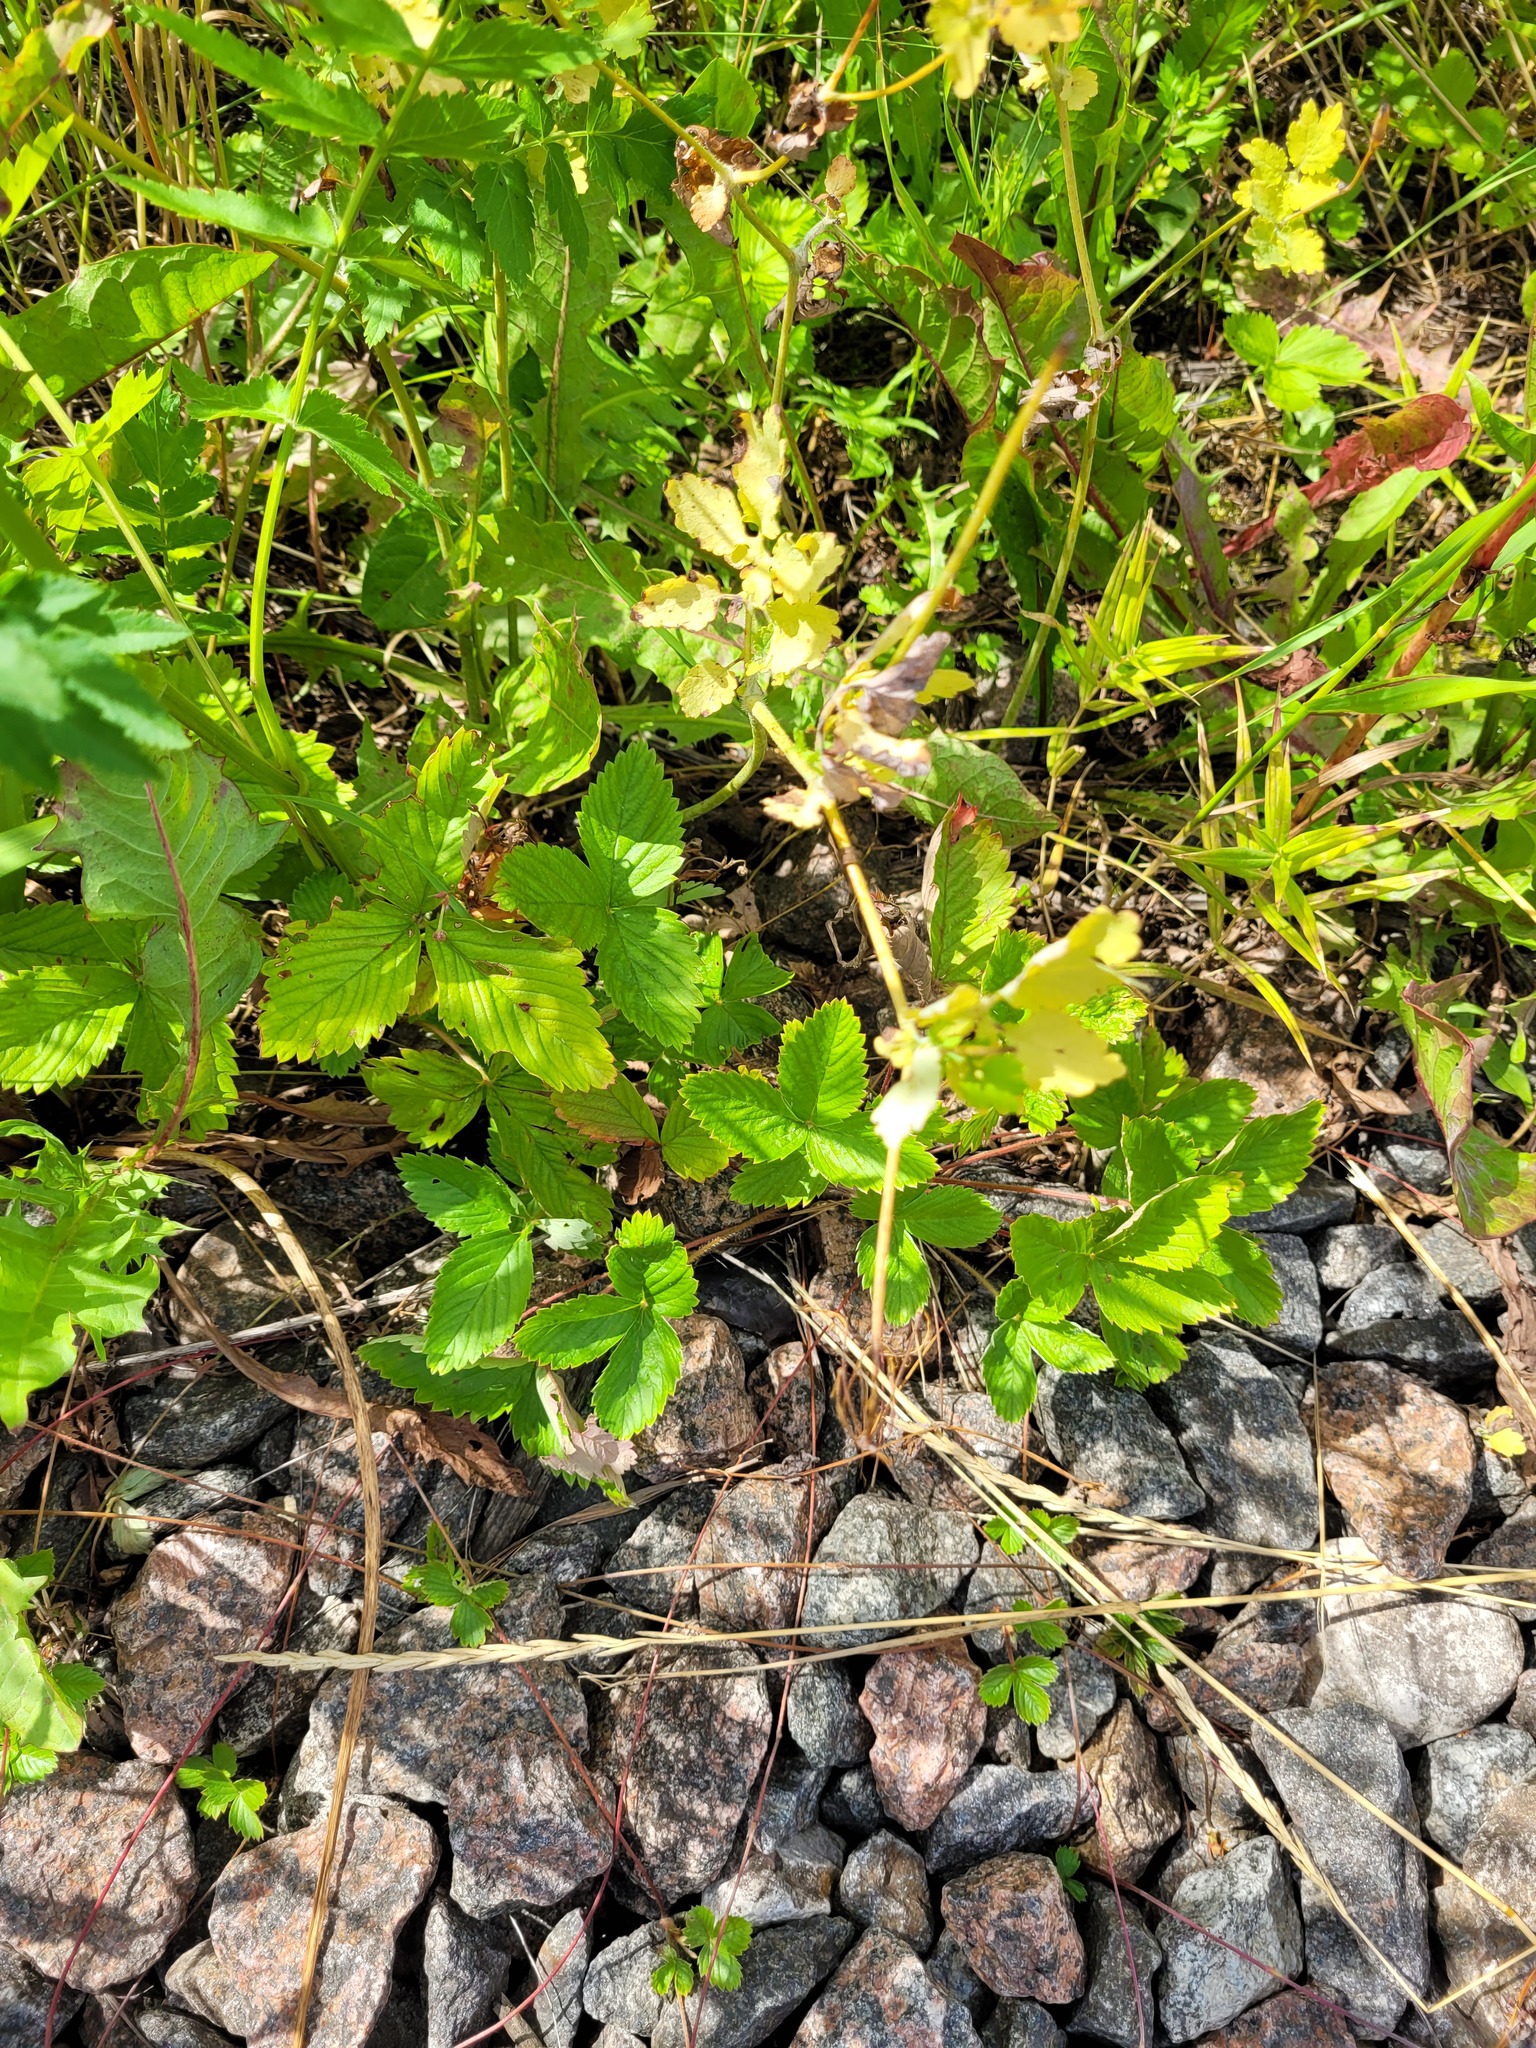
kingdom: Plantae
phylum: Tracheophyta
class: Magnoliopsida
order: Rosales
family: Rosaceae
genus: Fragaria
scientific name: Fragaria vesca
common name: Wild strawberry
